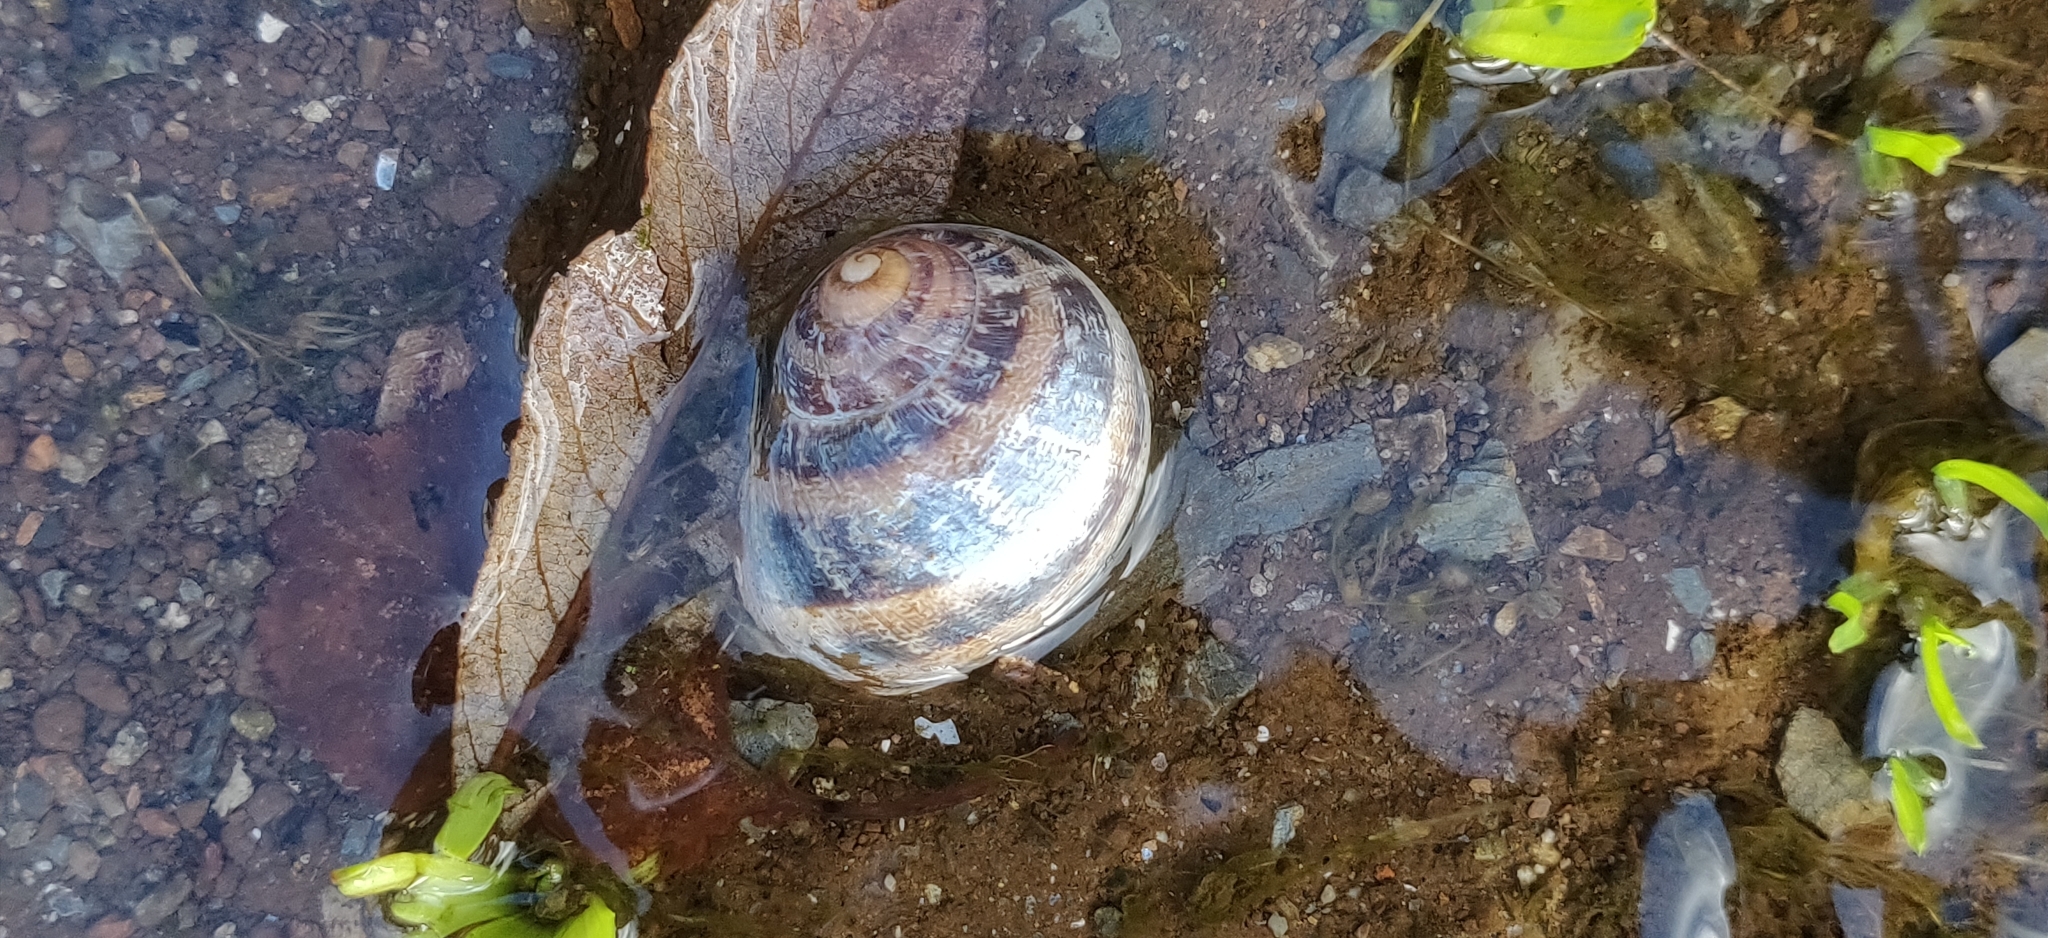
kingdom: Animalia
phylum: Mollusca
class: Gastropoda
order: Stylommatophora
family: Helicidae
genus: Cornu
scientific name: Cornu aspersum
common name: Brown garden snail
